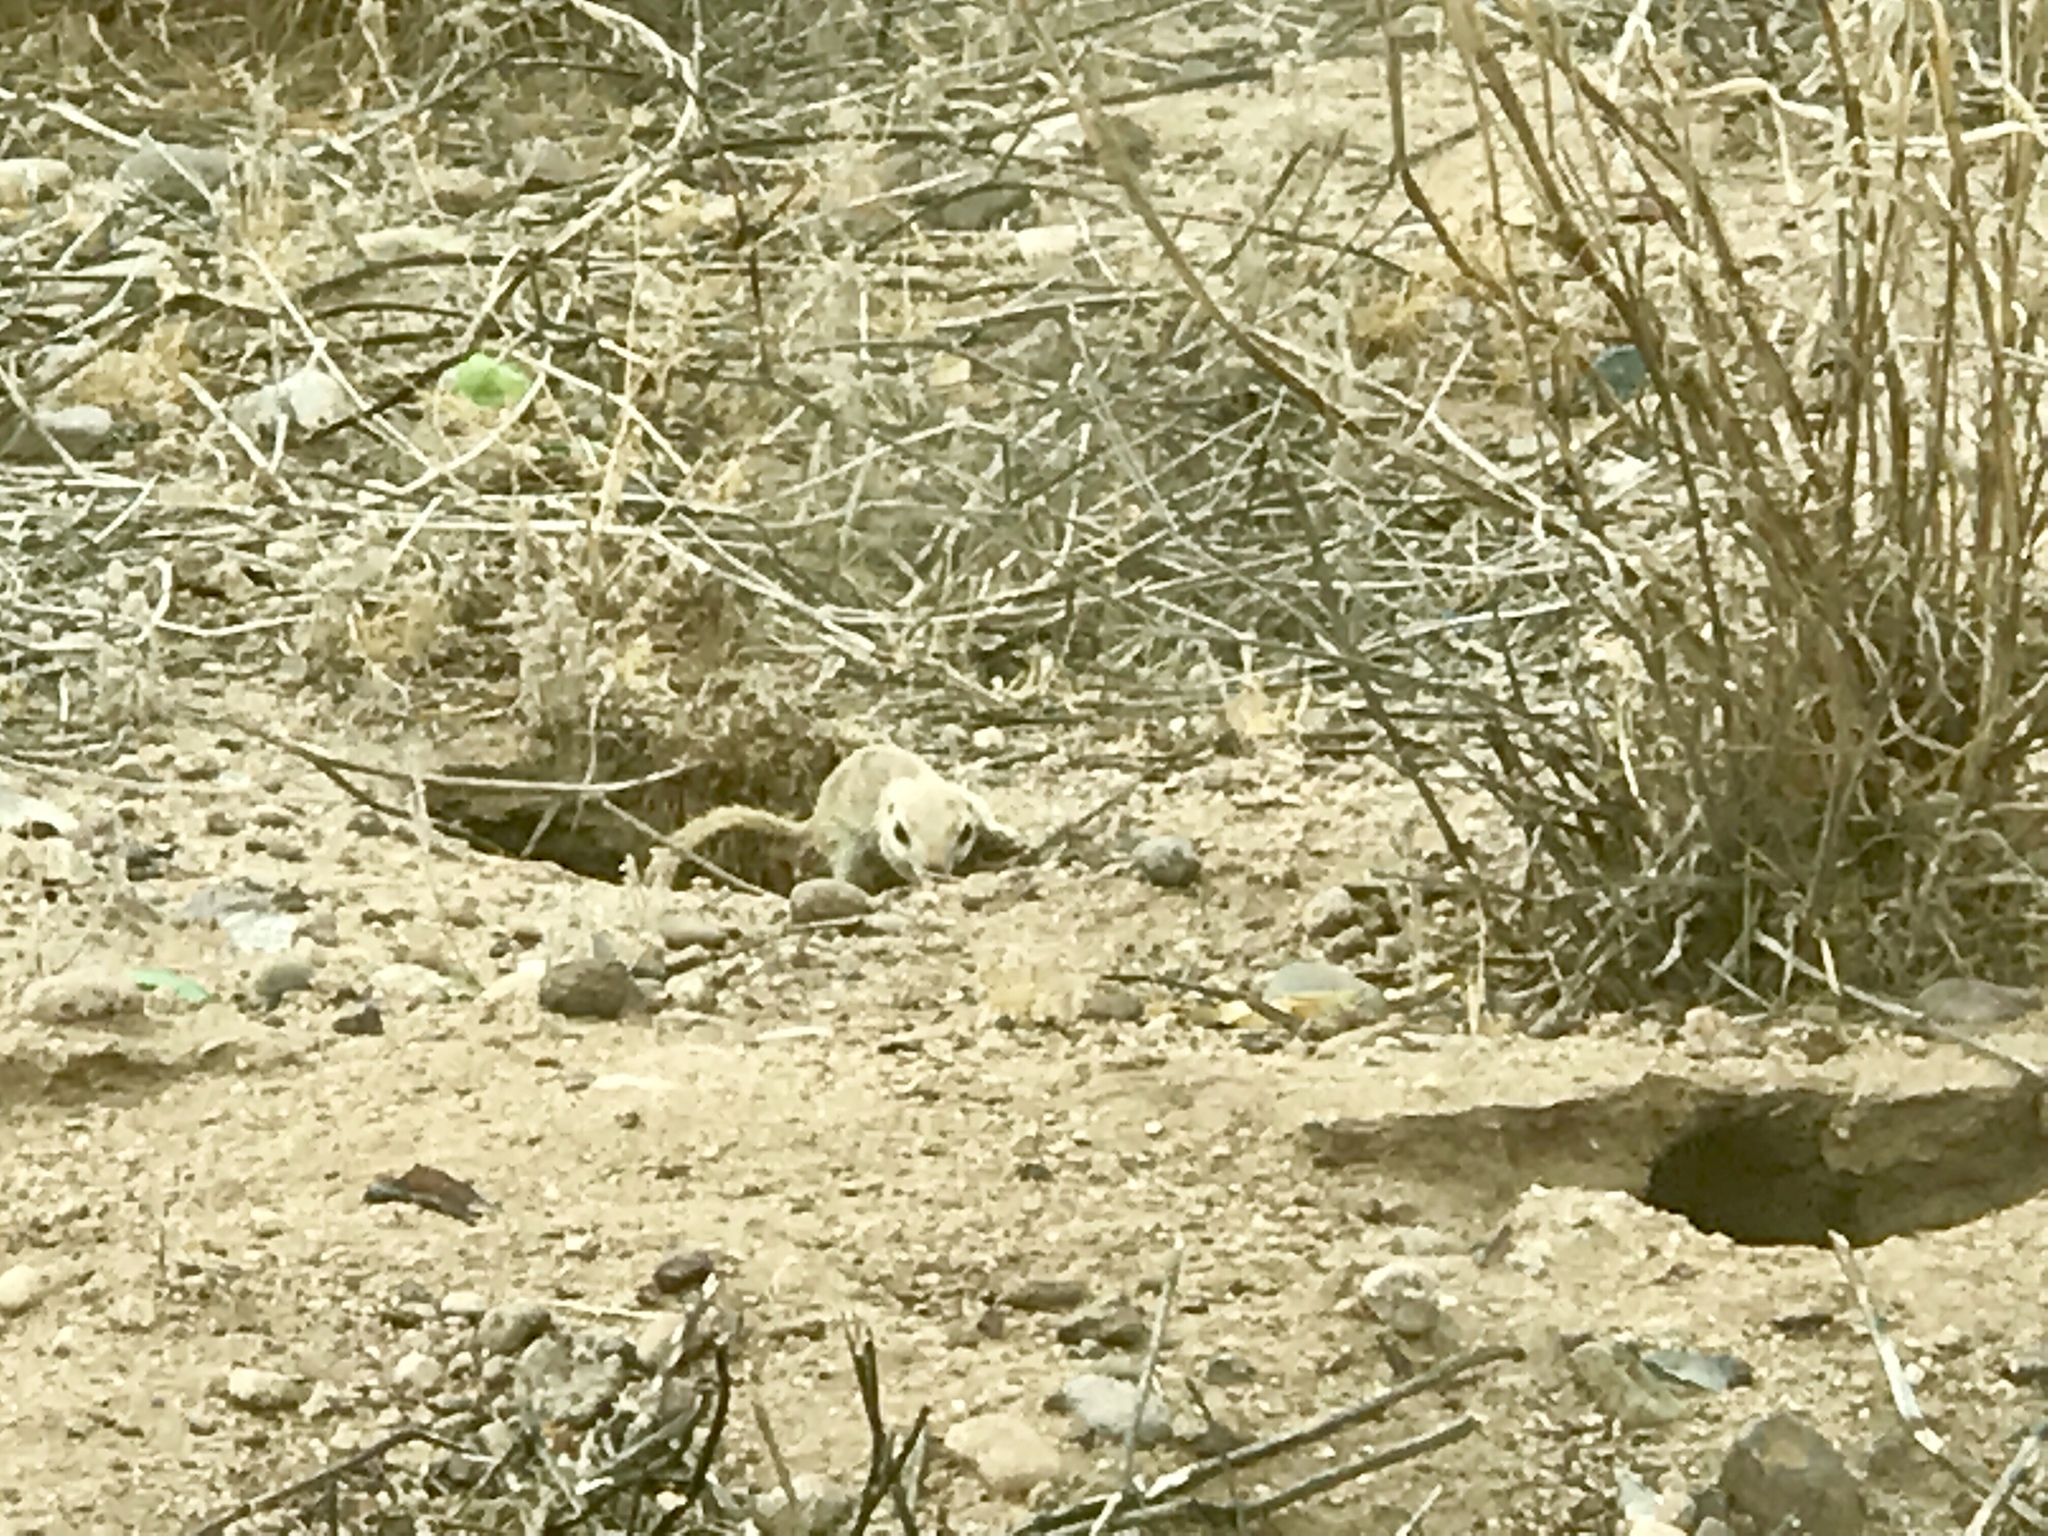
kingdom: Animalia
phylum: Chordata
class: Mammalia
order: Rodentia
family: Sciuridae
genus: Xerospermophilus
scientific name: Xerospermophilus tereticaudus
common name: Round-tailed ground squirrel
